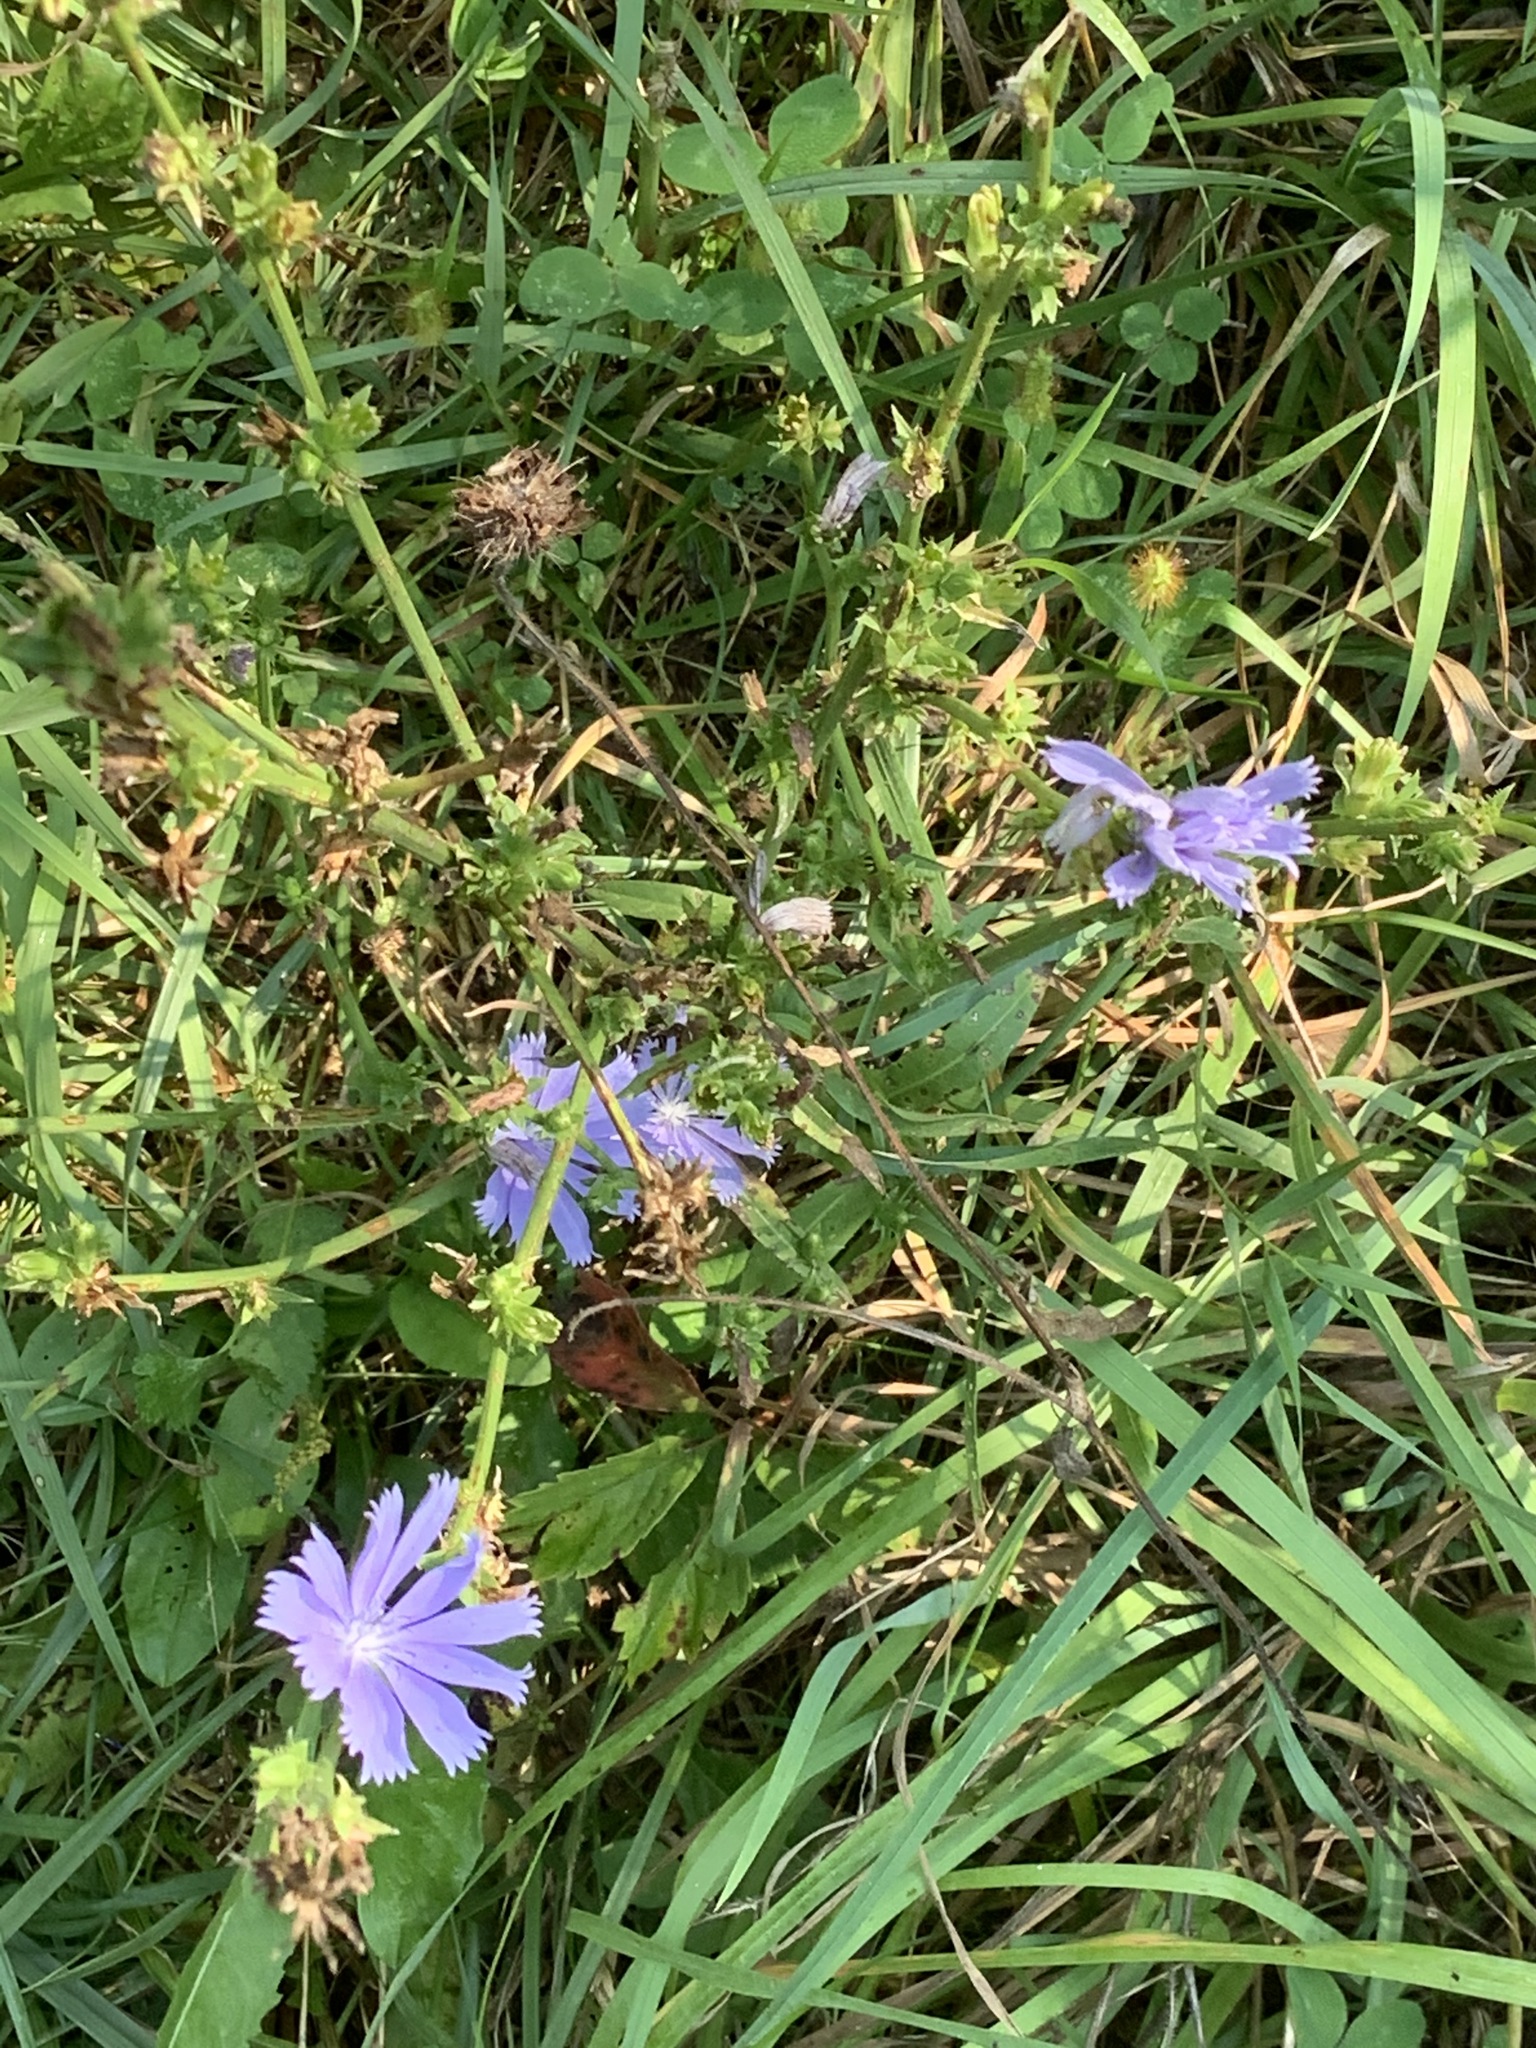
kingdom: Plantae
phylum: Tracheophyta
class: Magnoliopsida
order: Asterales
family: Asteraceae
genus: Cichorium
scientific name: Cichorium intybus
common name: Chicory
